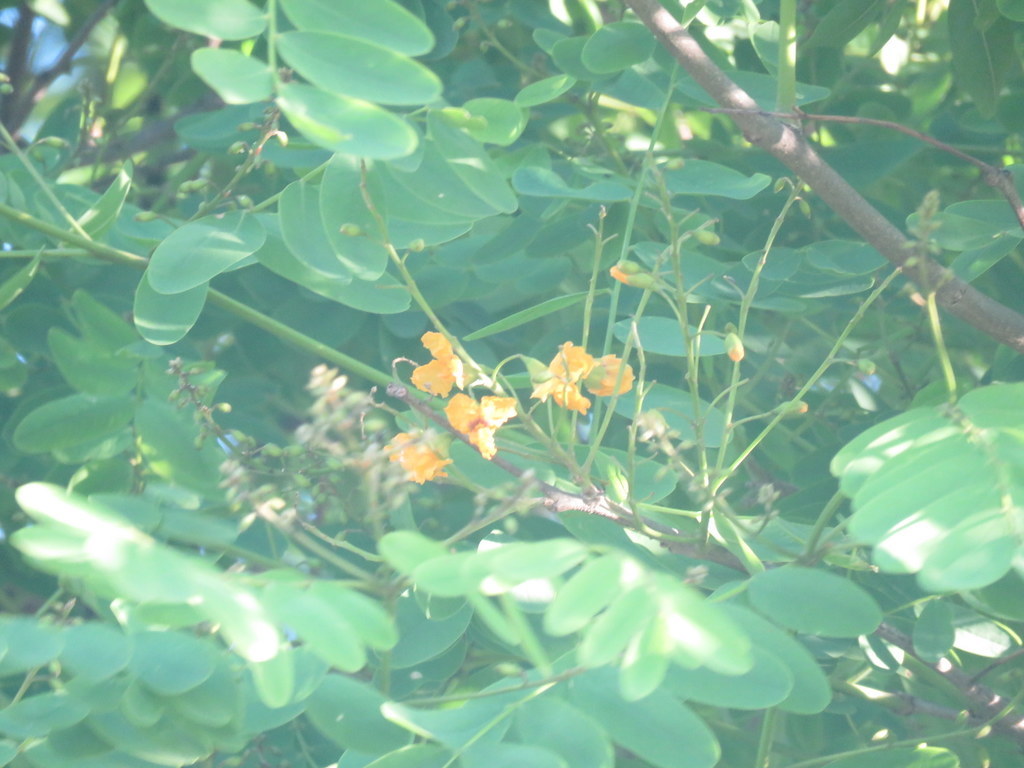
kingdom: Plantae
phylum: Tracheophyta
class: Magnoliopsida
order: Fabales
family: Fabaceae
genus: Tipuana
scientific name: Tipuana tipu
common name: Tiputree
